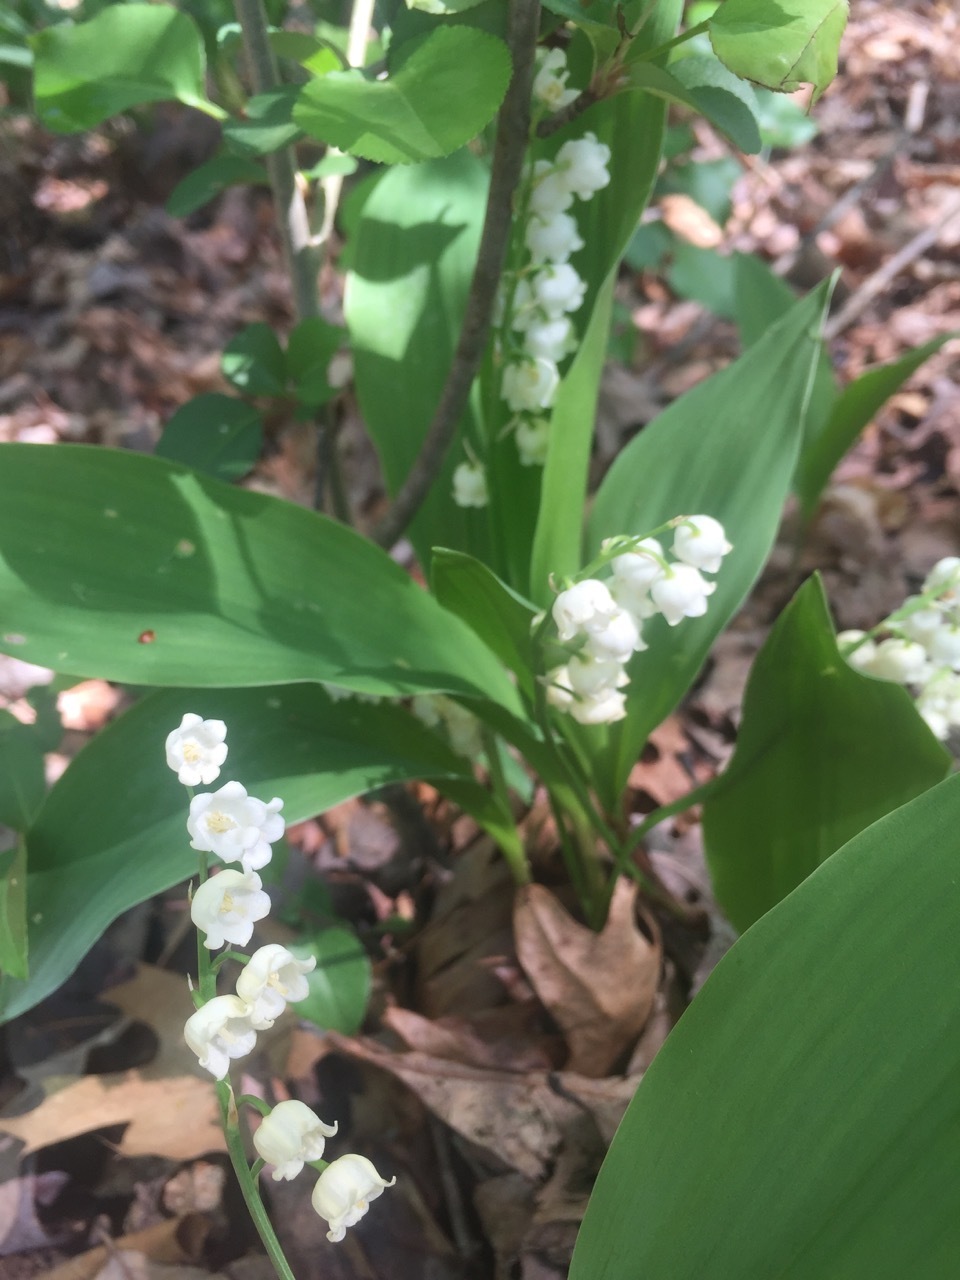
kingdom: Plantae
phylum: Tracheophyta
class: Liliopsida
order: Asparagales
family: Asparagaceae
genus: Convallaria
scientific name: Convallaria majalis
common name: Lily-of-the-valley
